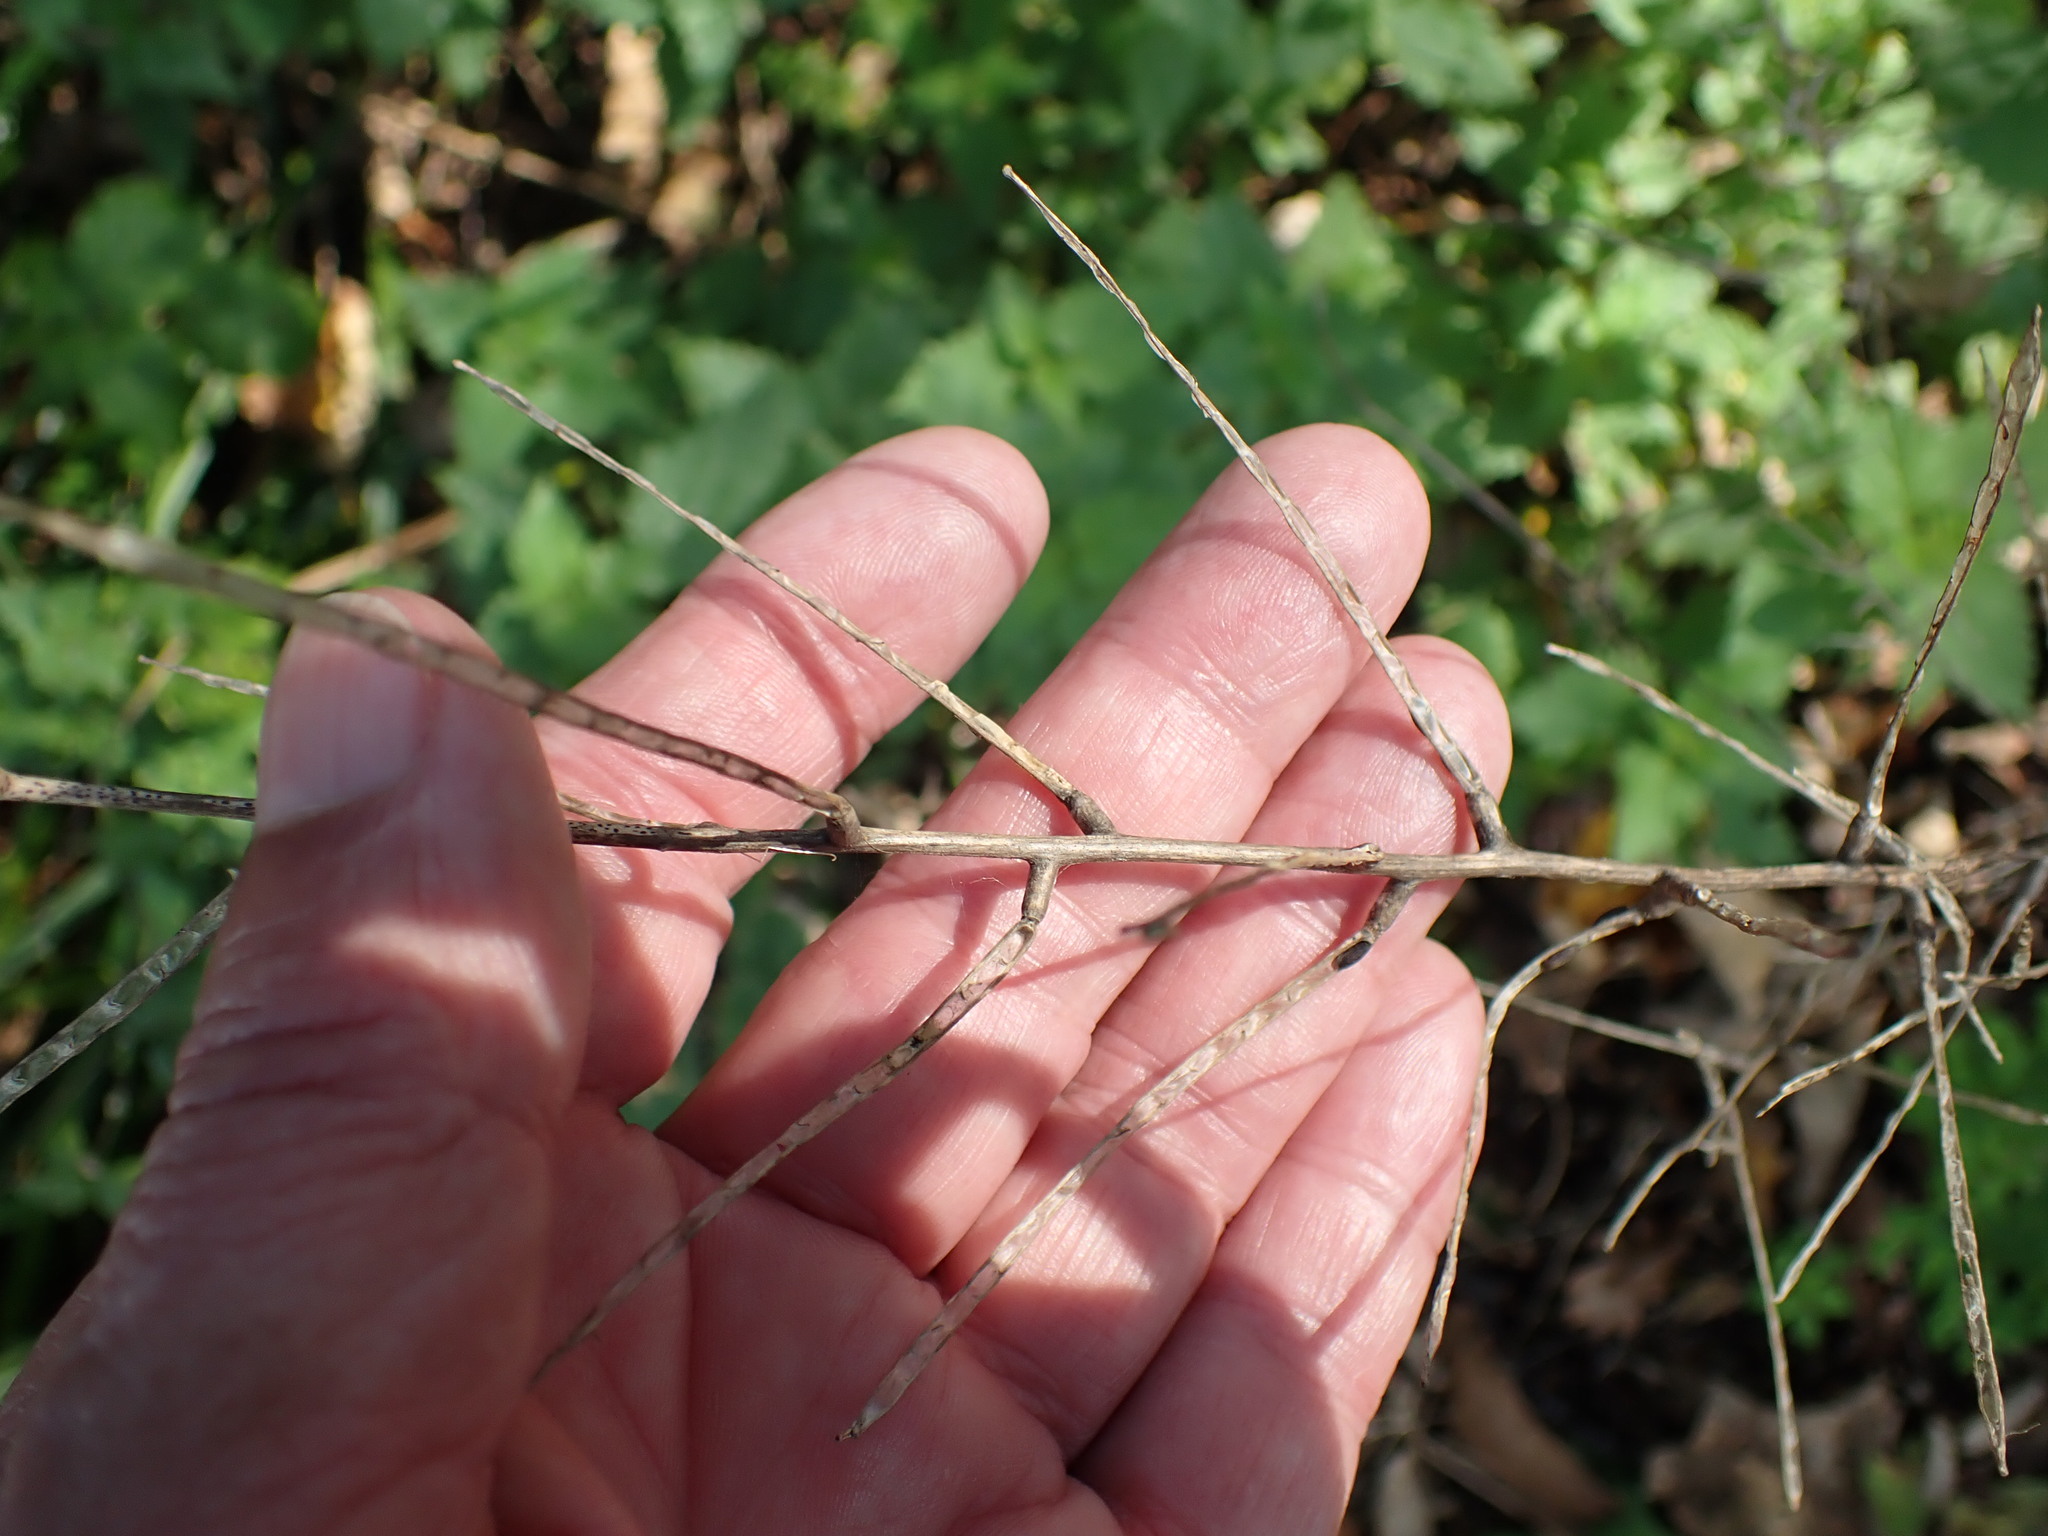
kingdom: Plantae
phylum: Tracheophyta
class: Magnoliopsida
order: Brassicales
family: Brassicaceae
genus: Alliaria
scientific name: Alliaria petiolata
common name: Garlic mustard
